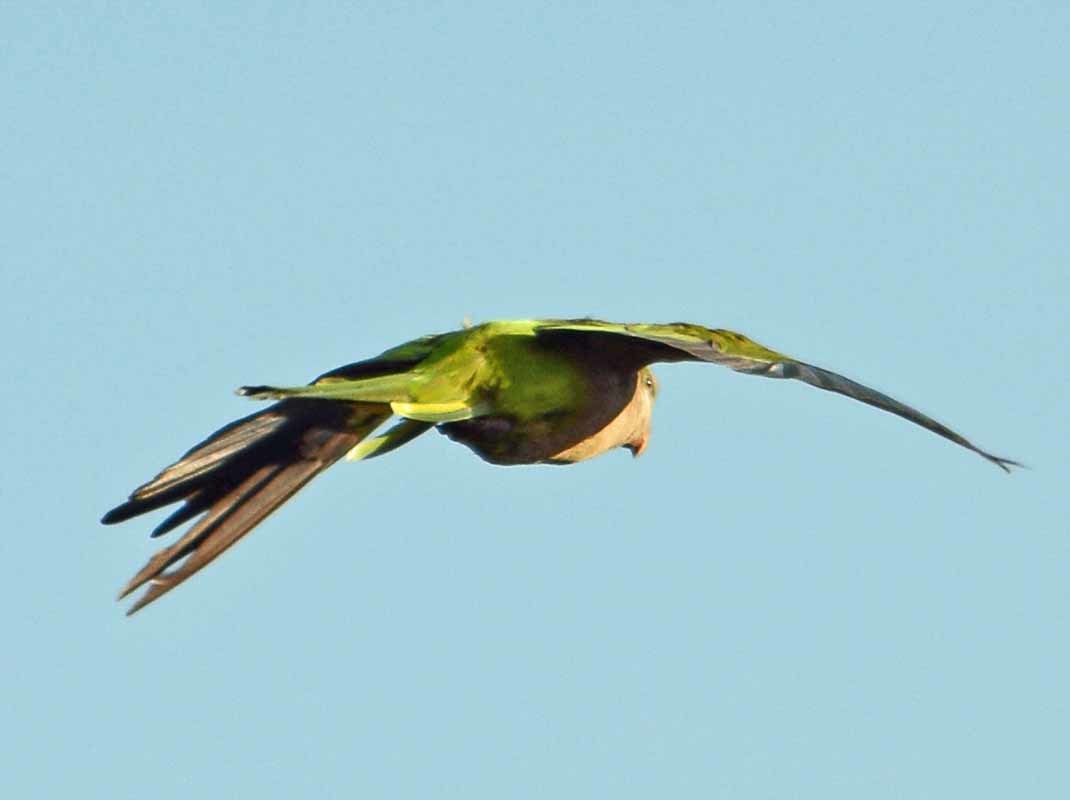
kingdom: Animalia
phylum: Chordata
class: Aves
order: Psittaciformes
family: Psittacidae
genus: Myiopsitta
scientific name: Myiopsitta monachus
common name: Monk parakeet
